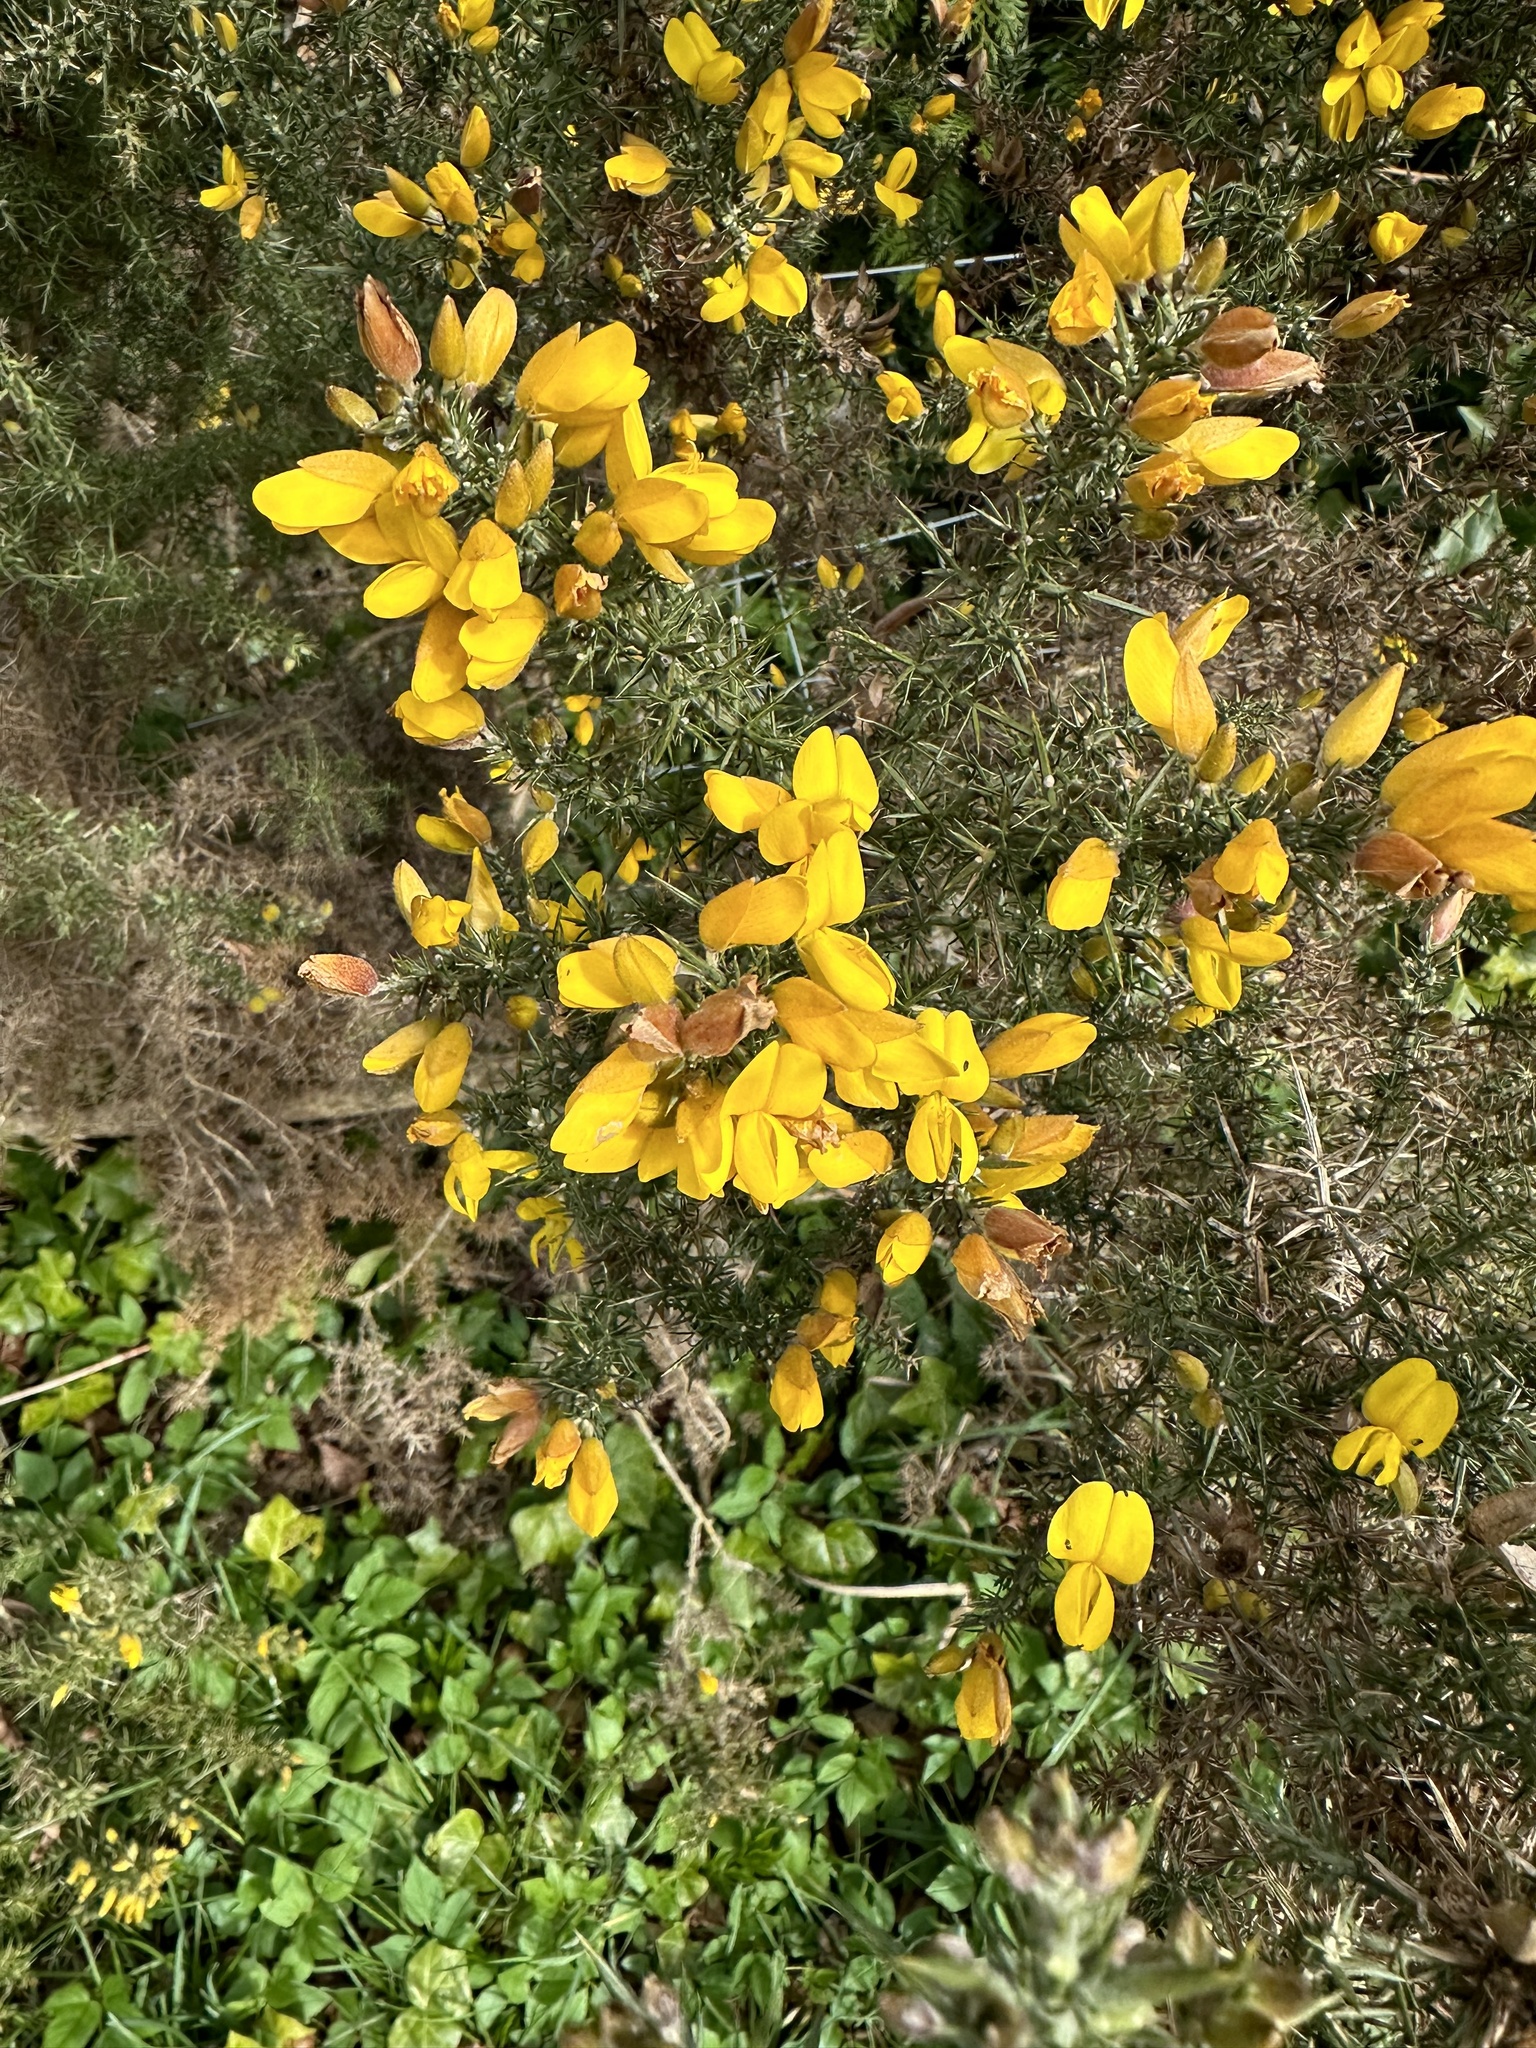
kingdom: Plantae
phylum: Tracheophyta
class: Magnoliopsida
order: Fabales
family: Fabaceae
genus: Ulex
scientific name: Ulex europaeus
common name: Common gorse
